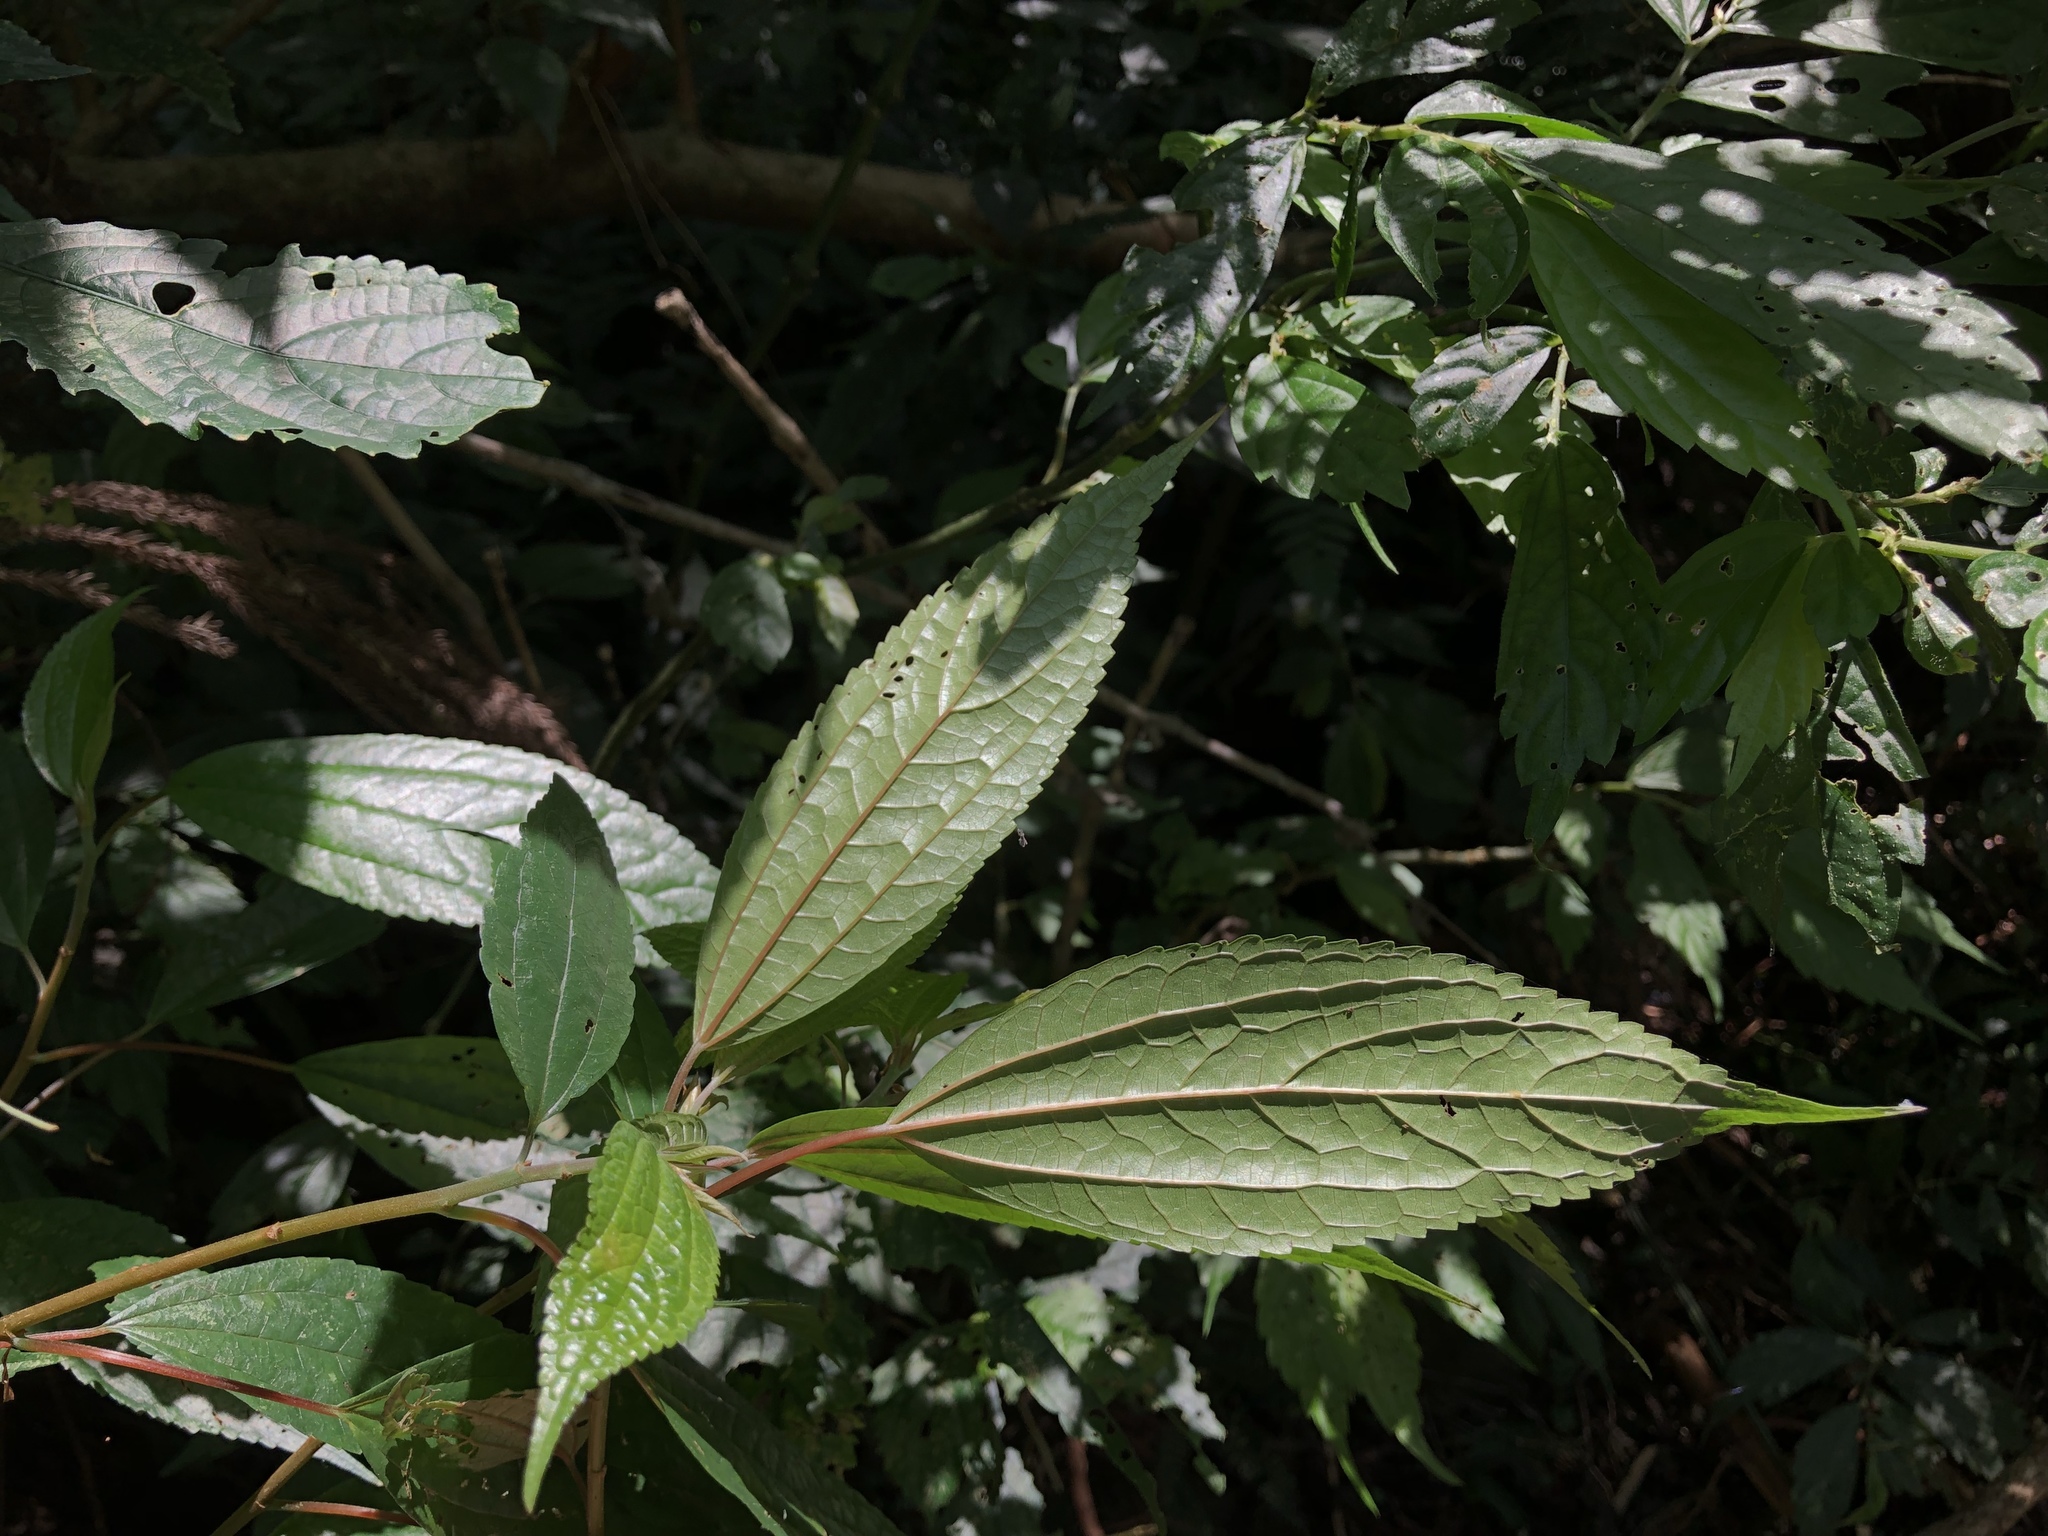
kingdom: Plantae
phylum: Tracheophyta
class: Magnoliopsida
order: Rosales
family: Urticaceae
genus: Oreocnide
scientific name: Oreocnide pedunculata
